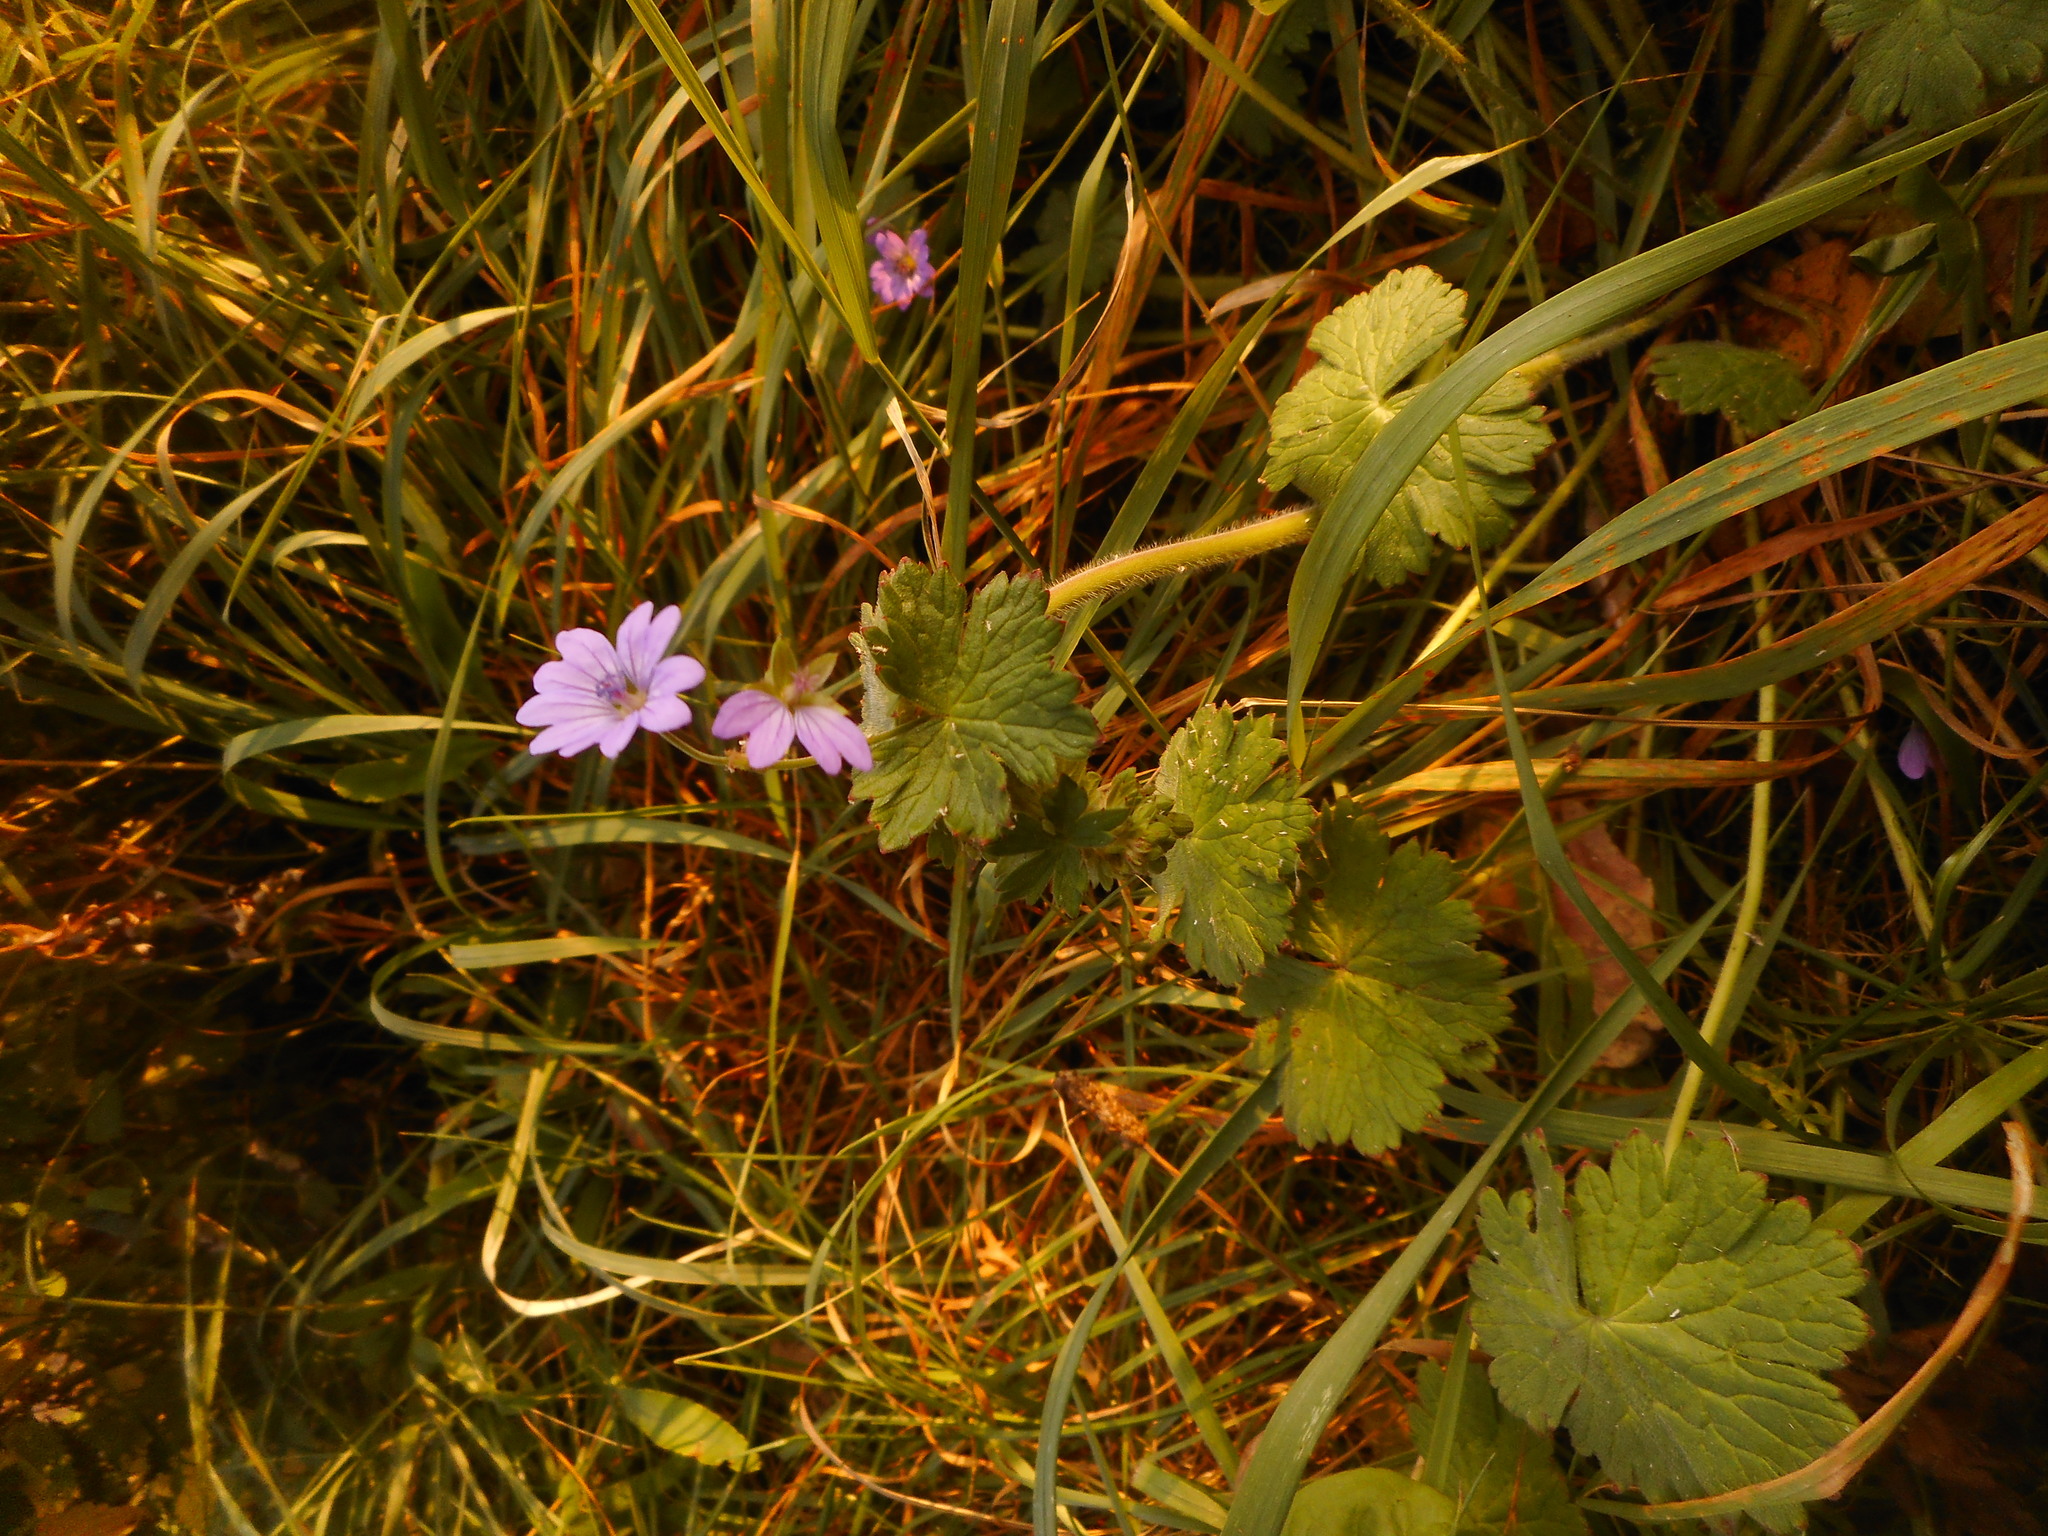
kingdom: Plantae
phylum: Tracheophyta
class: Magnoliopsida
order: Geraniales
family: Geraniaceae
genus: Geranium
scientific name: Geranium pyrenaicum
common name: Hedgerow crane's-bill
